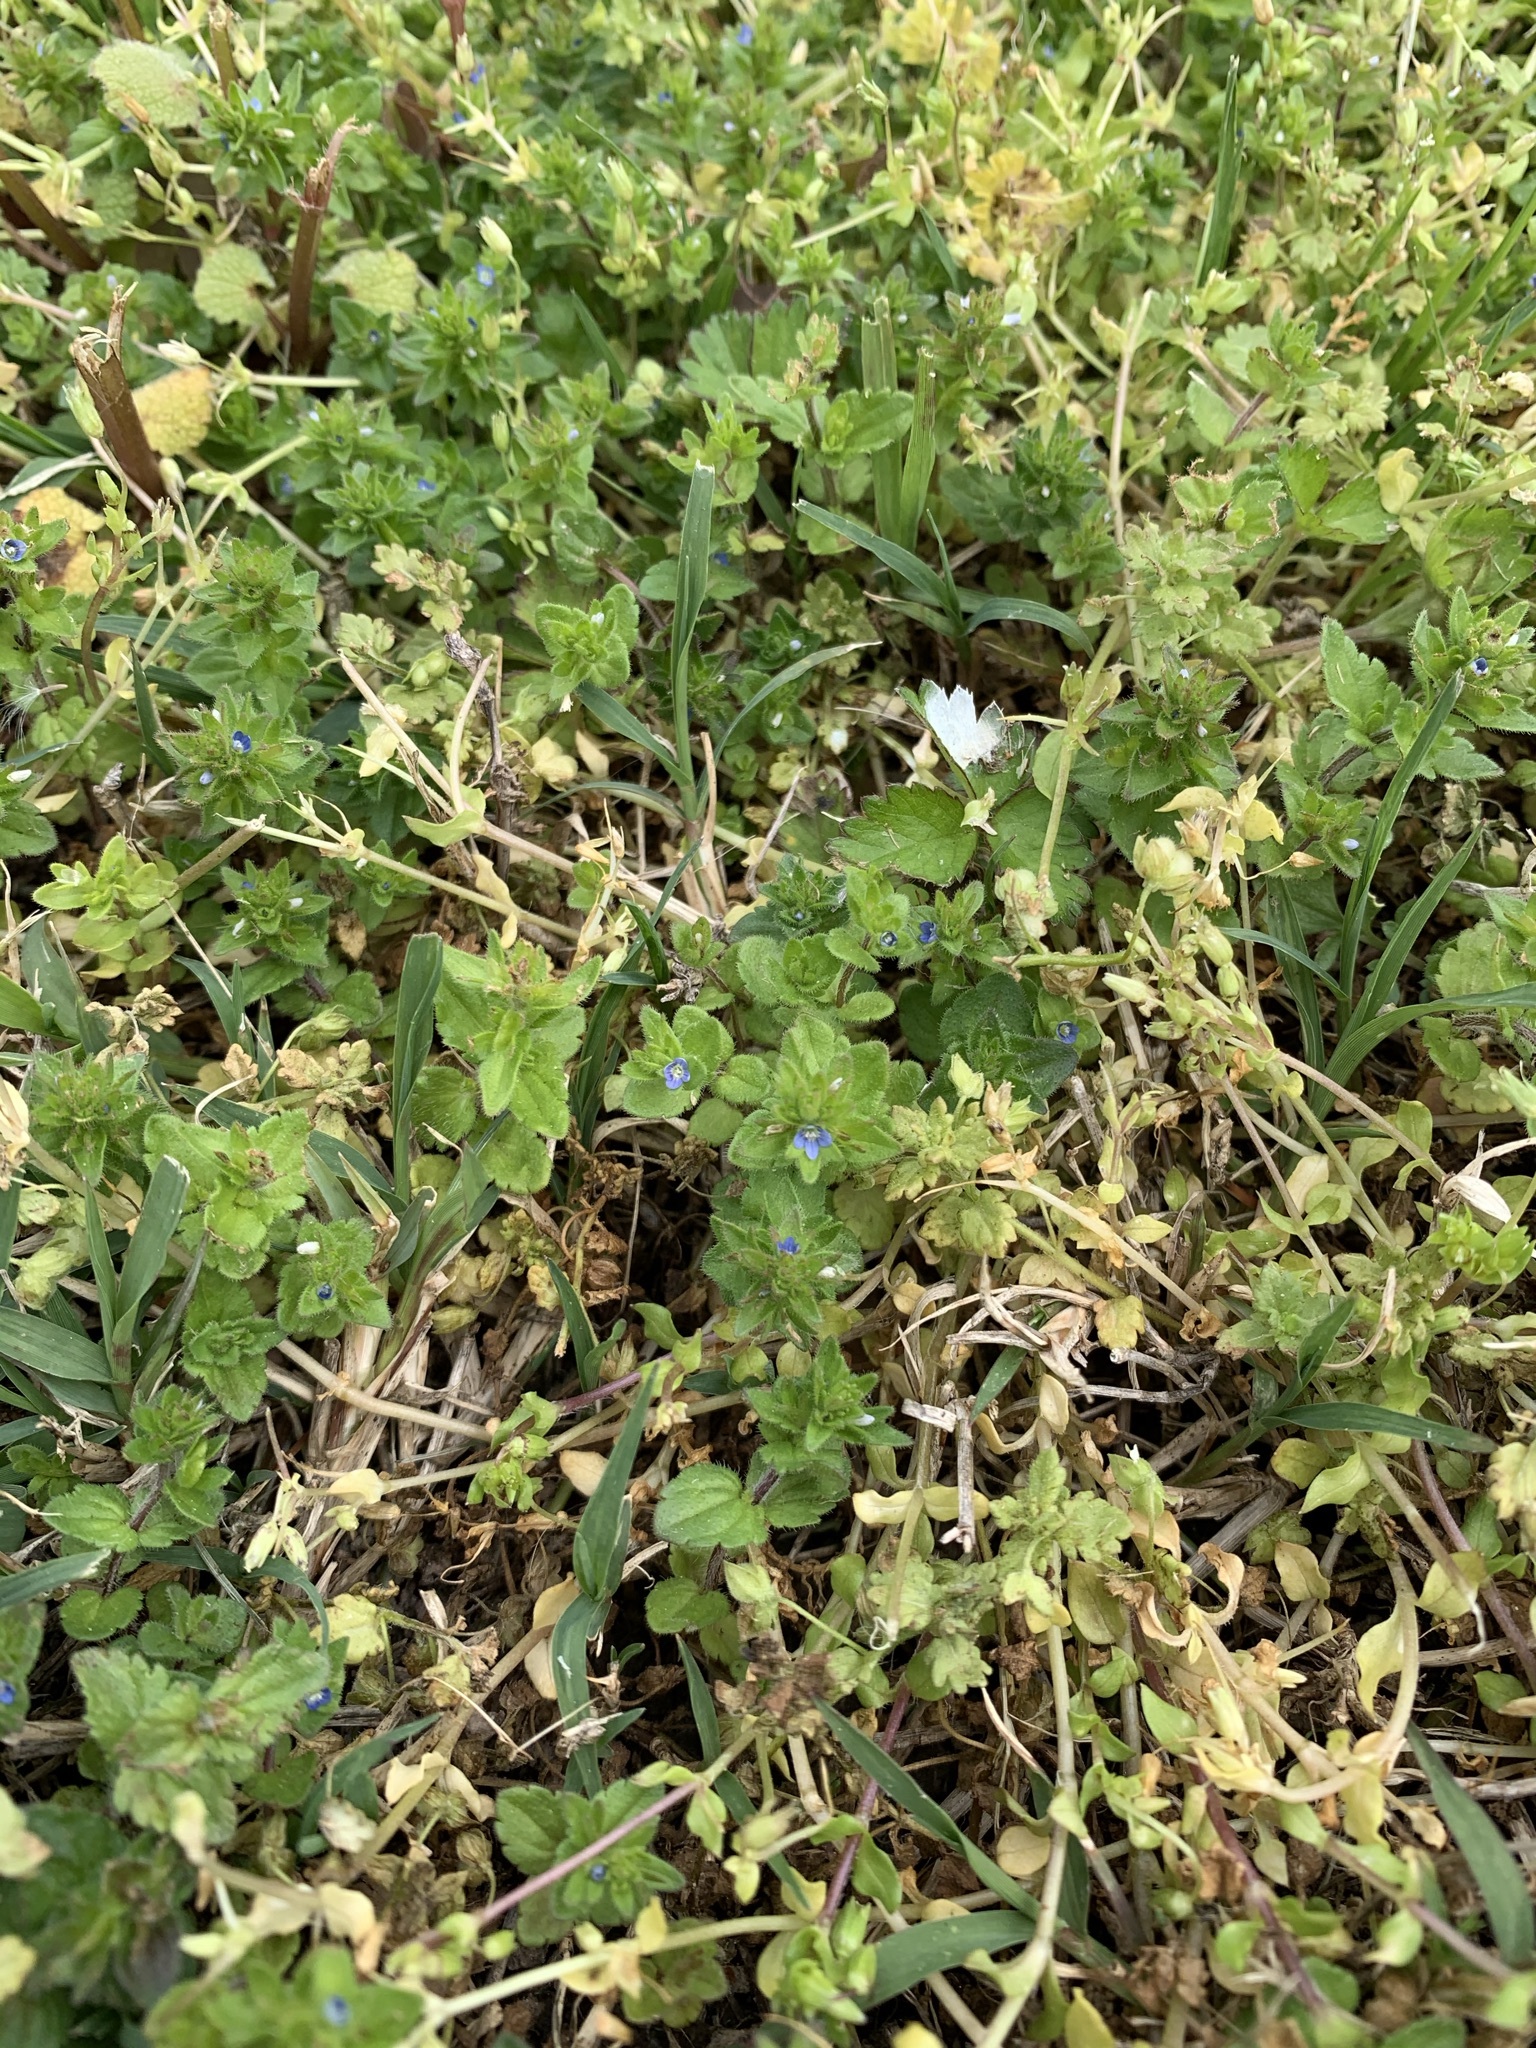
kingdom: Plantae
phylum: Tracheophyta
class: Magnoliopsida
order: Lamiales
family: Plantaginaceae
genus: Veronica
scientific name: Veronica arvensis
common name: Corn speedwell
